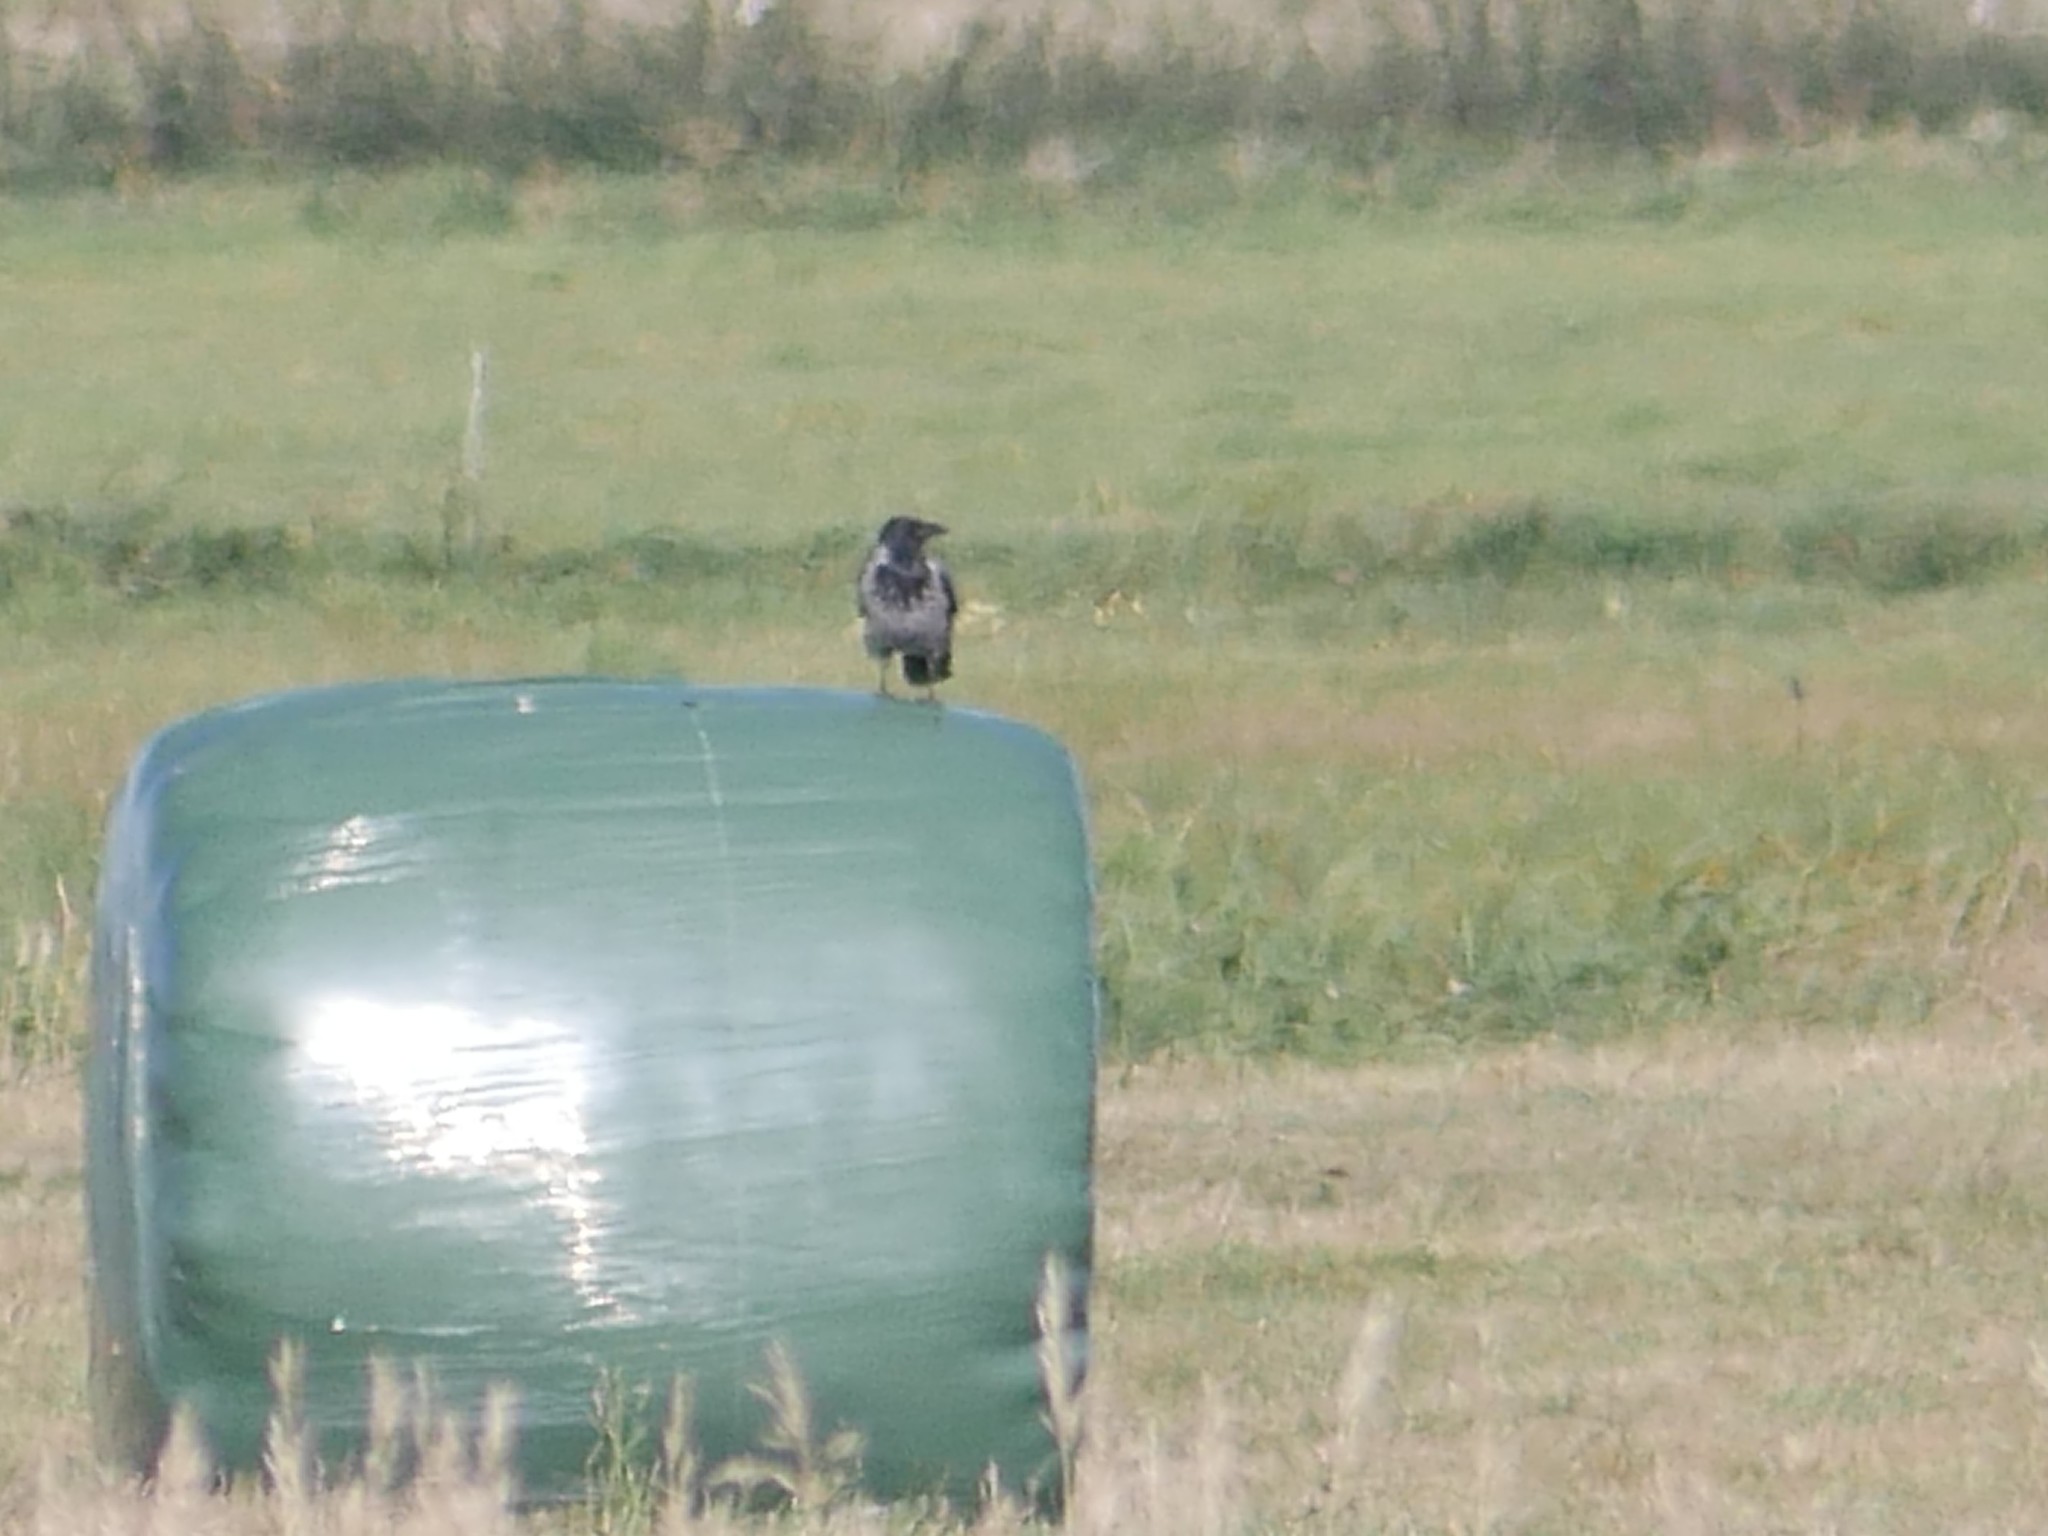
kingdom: Animalia
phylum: Chordata
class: Aves
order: Passeriformes
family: Corvidae
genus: Corvus
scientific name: Corvus cornix
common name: Hooded crow
